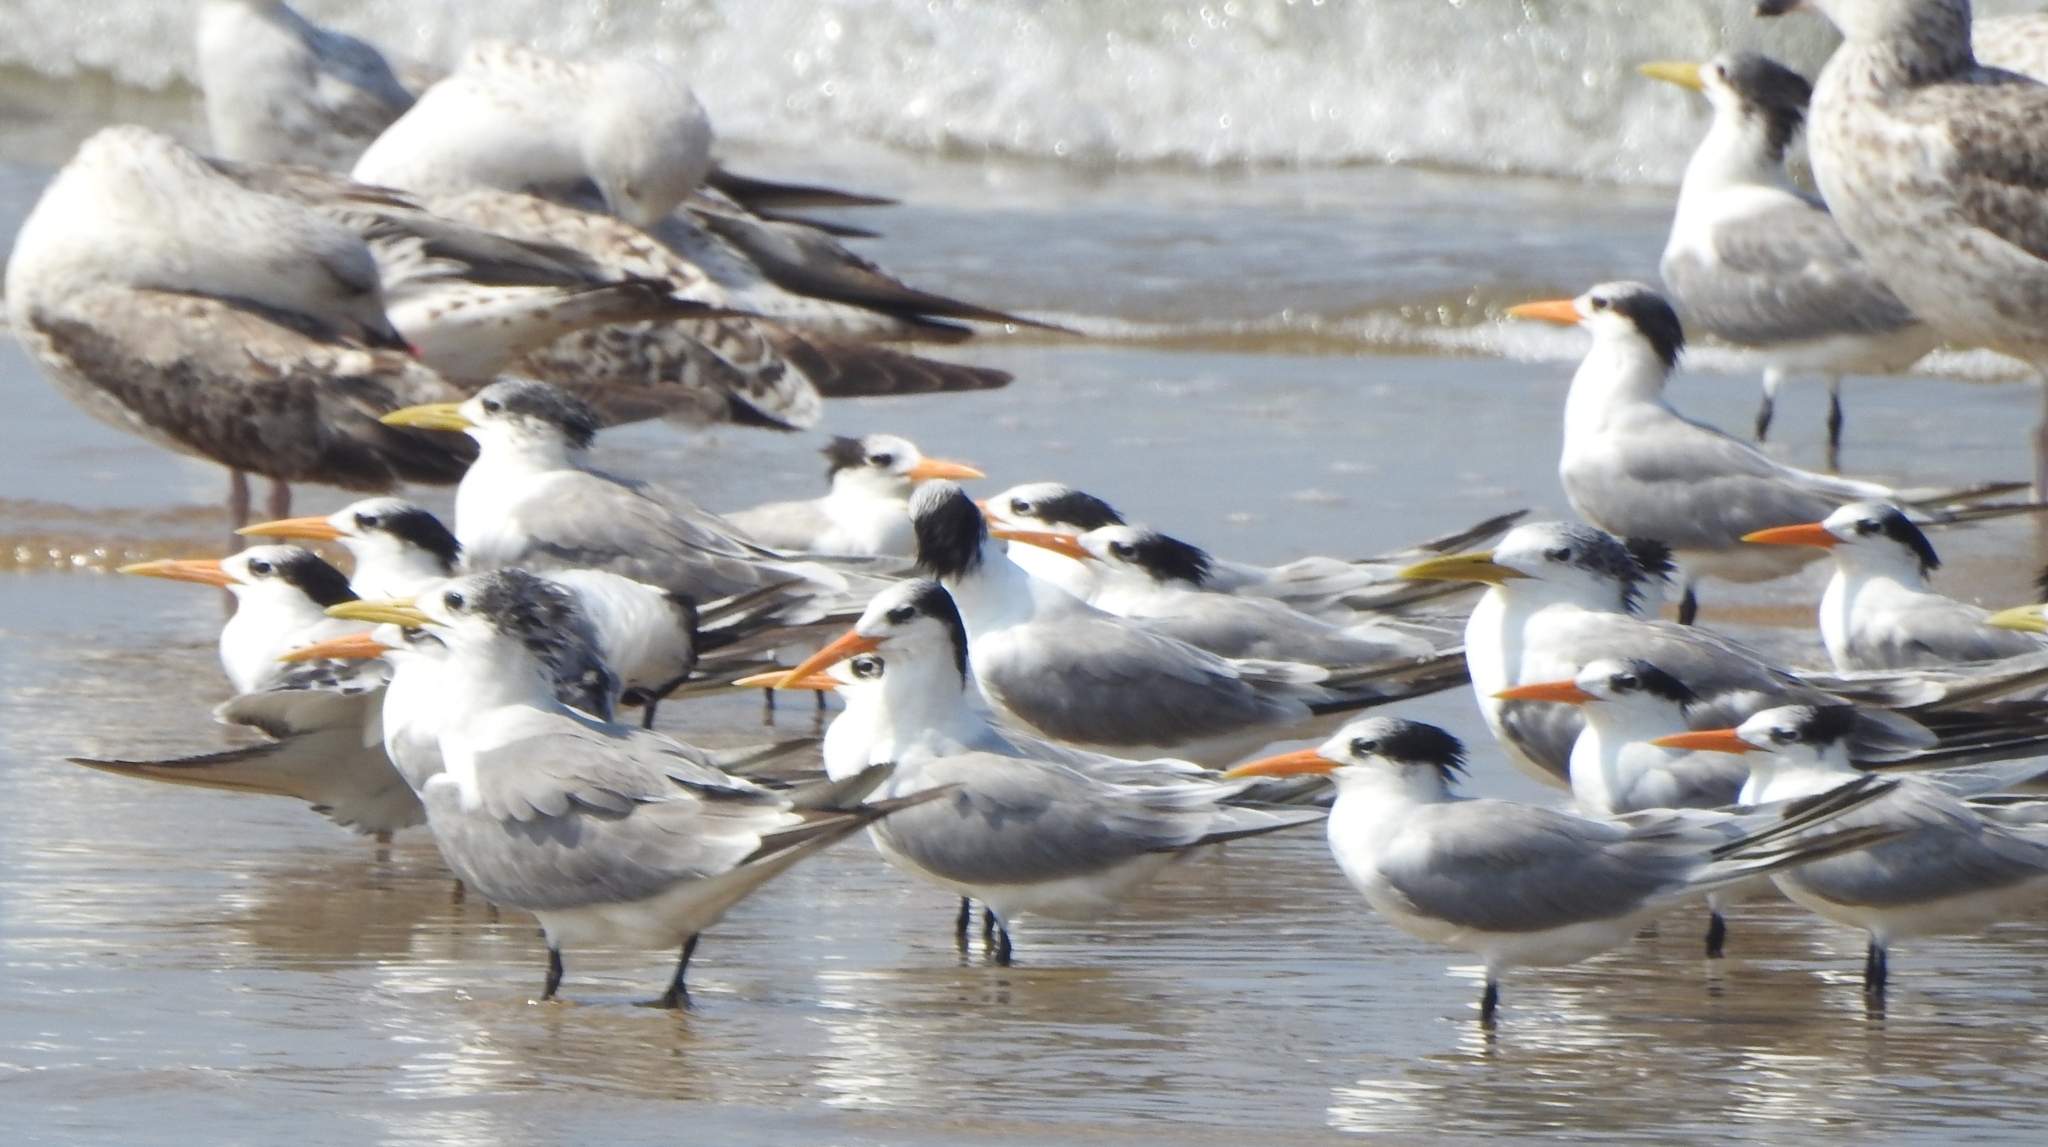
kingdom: Animalia
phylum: Chordata
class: Aves
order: Charadriiformes
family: Laridae
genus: Thalasseus
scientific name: Thalasseus bergii
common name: Greater crested tern
